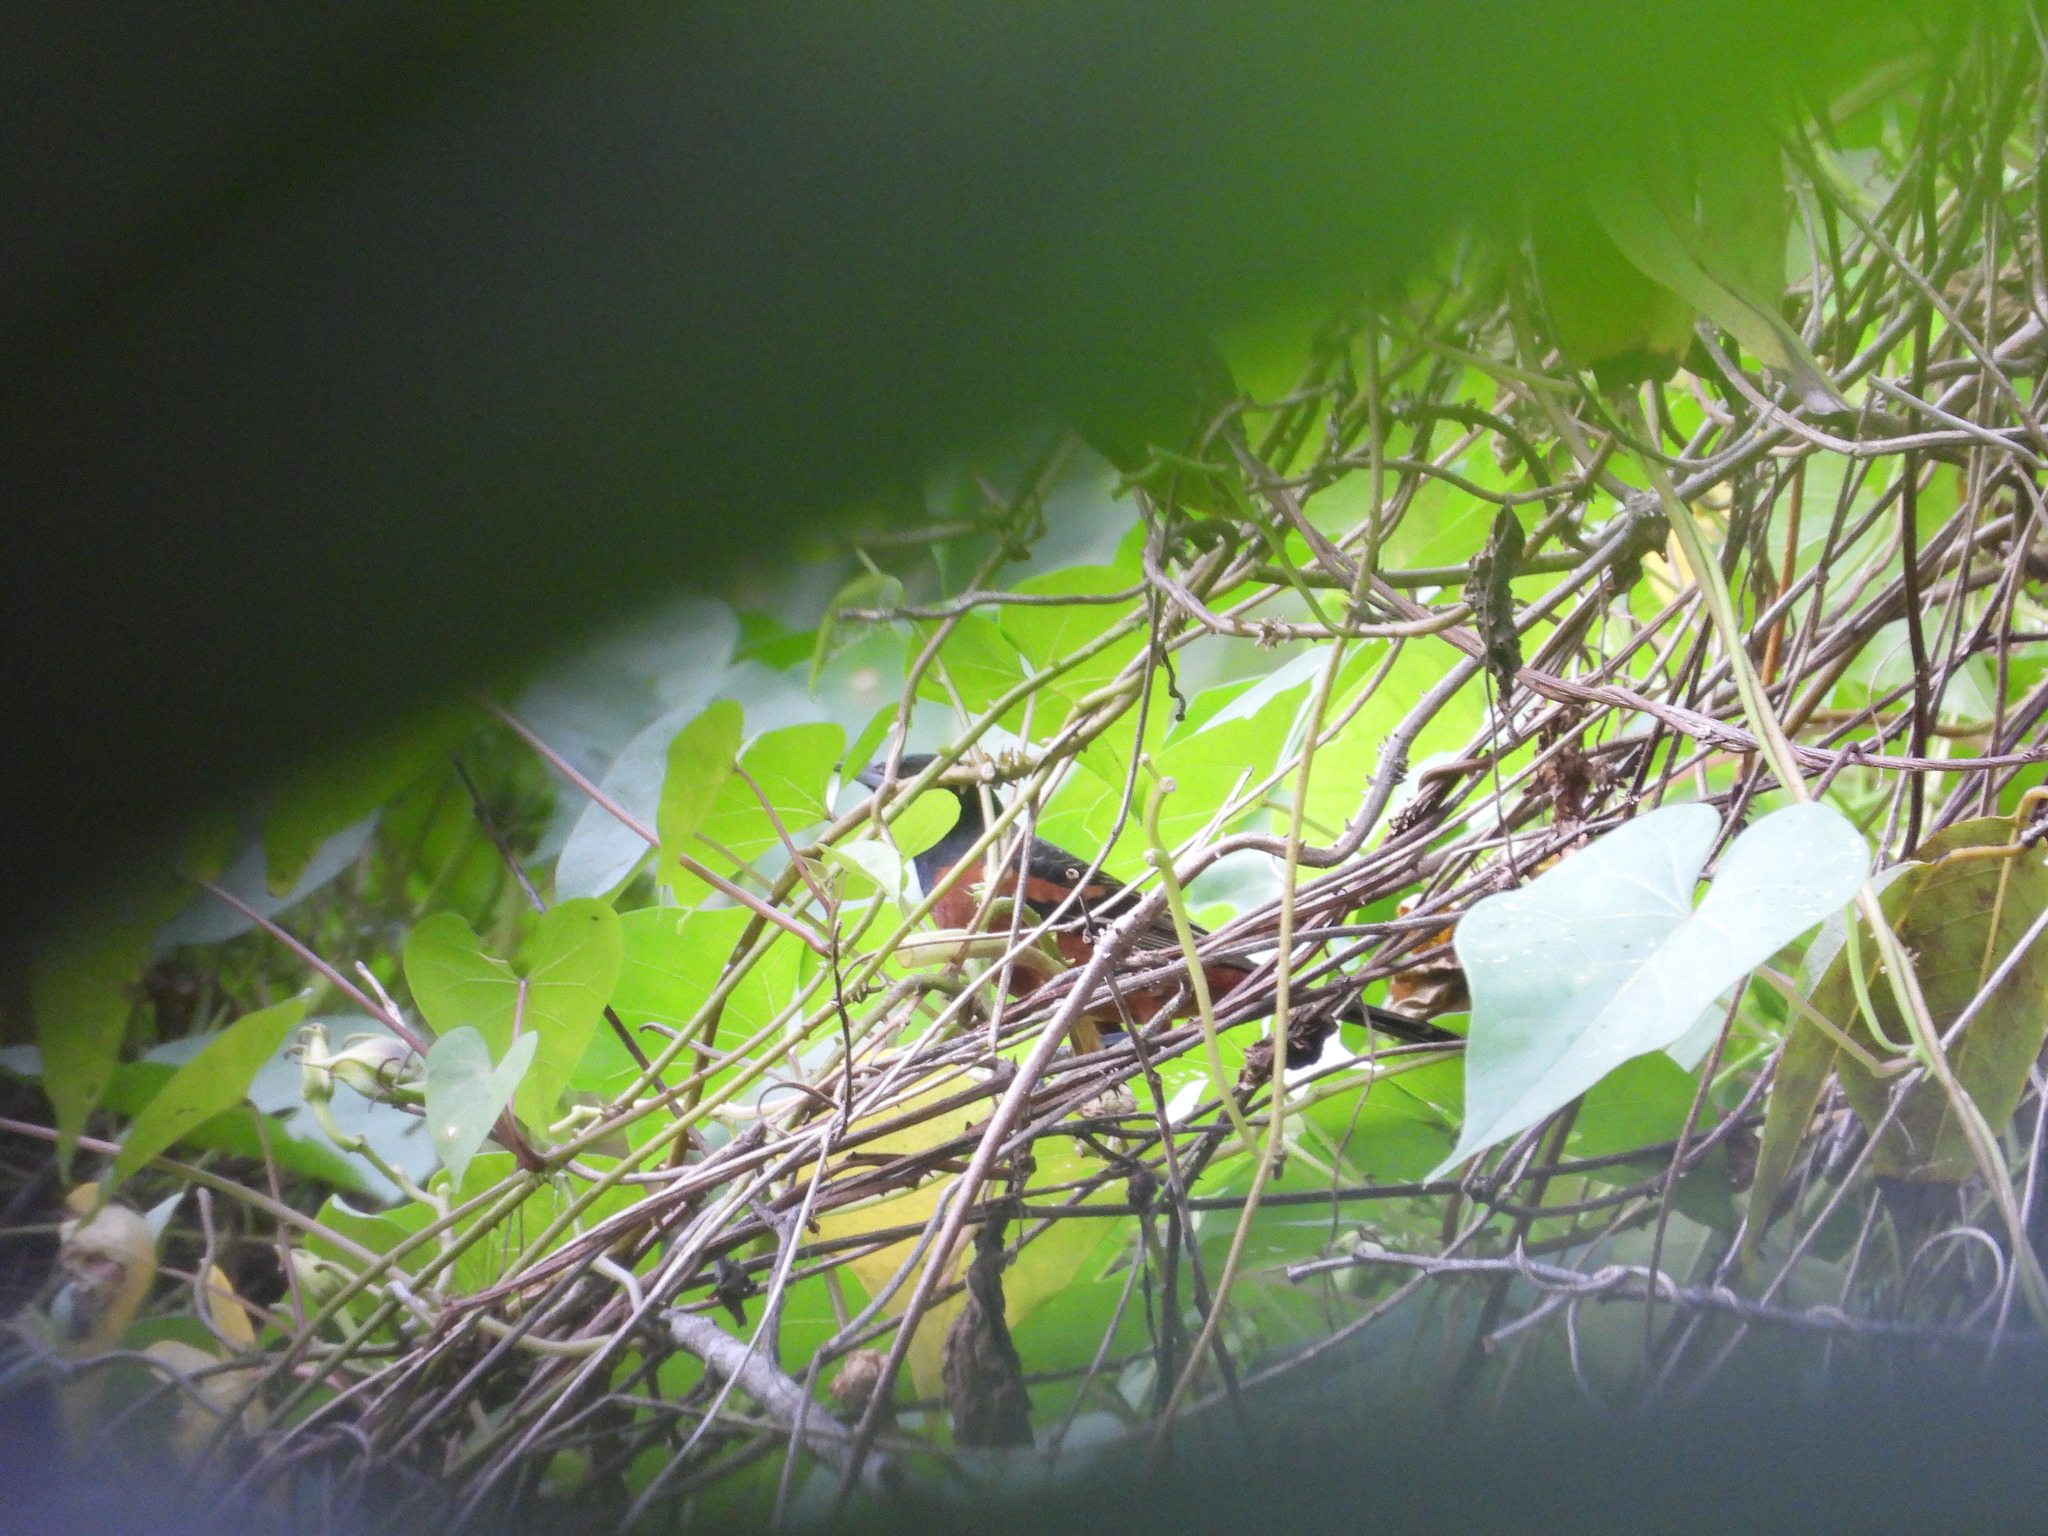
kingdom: Animalia
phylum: Chordata
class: Aves
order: Passeriformes
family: Icteridae
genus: Icterus
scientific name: Icterus spurius
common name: Orchard oriole
